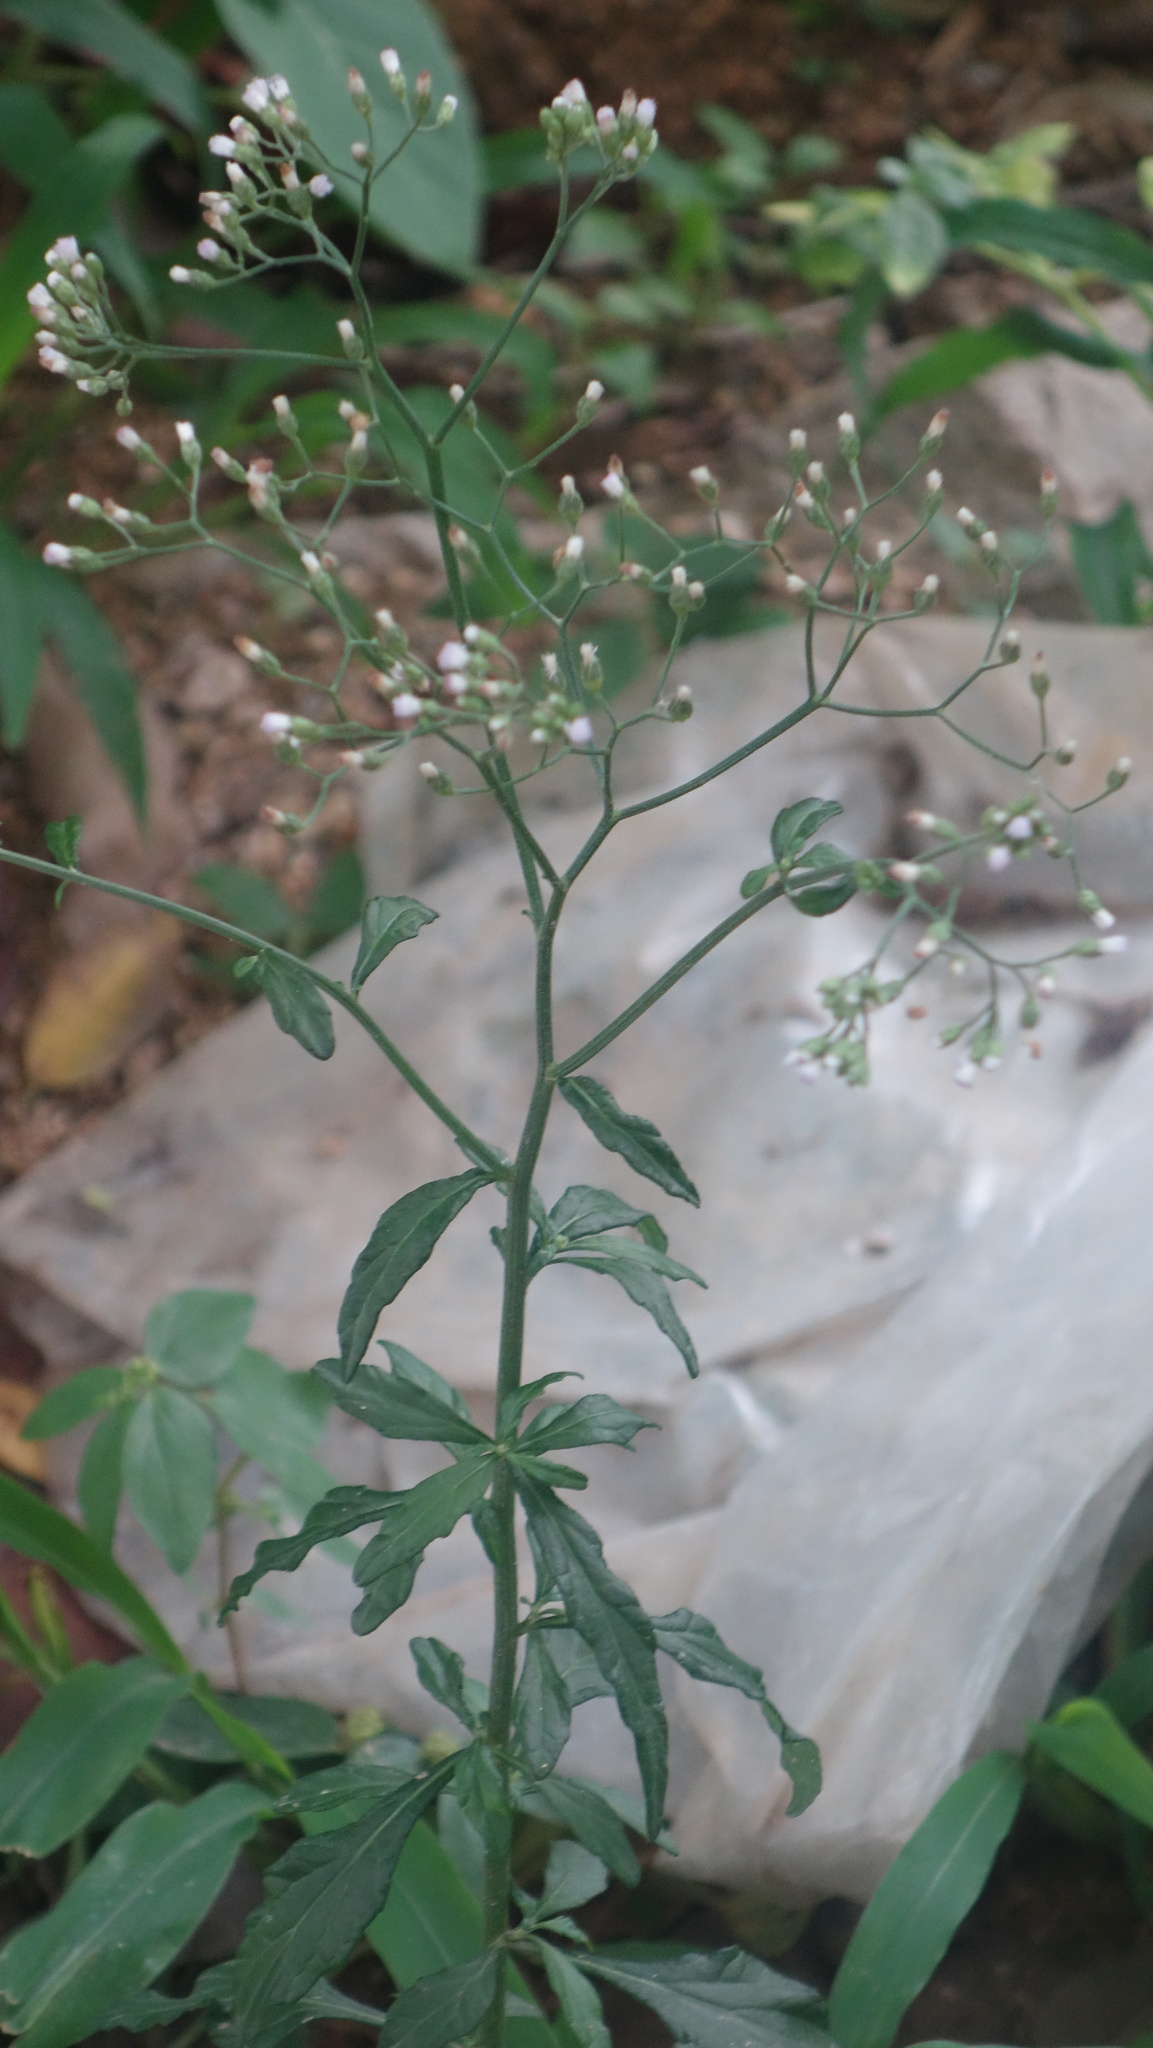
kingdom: Plantae
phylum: Tracheophyta
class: Magnoliopsida
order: Asterales
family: Asteraceae
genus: Cyanthillium
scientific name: Cyanthillium cinereum
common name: Little ironweed
